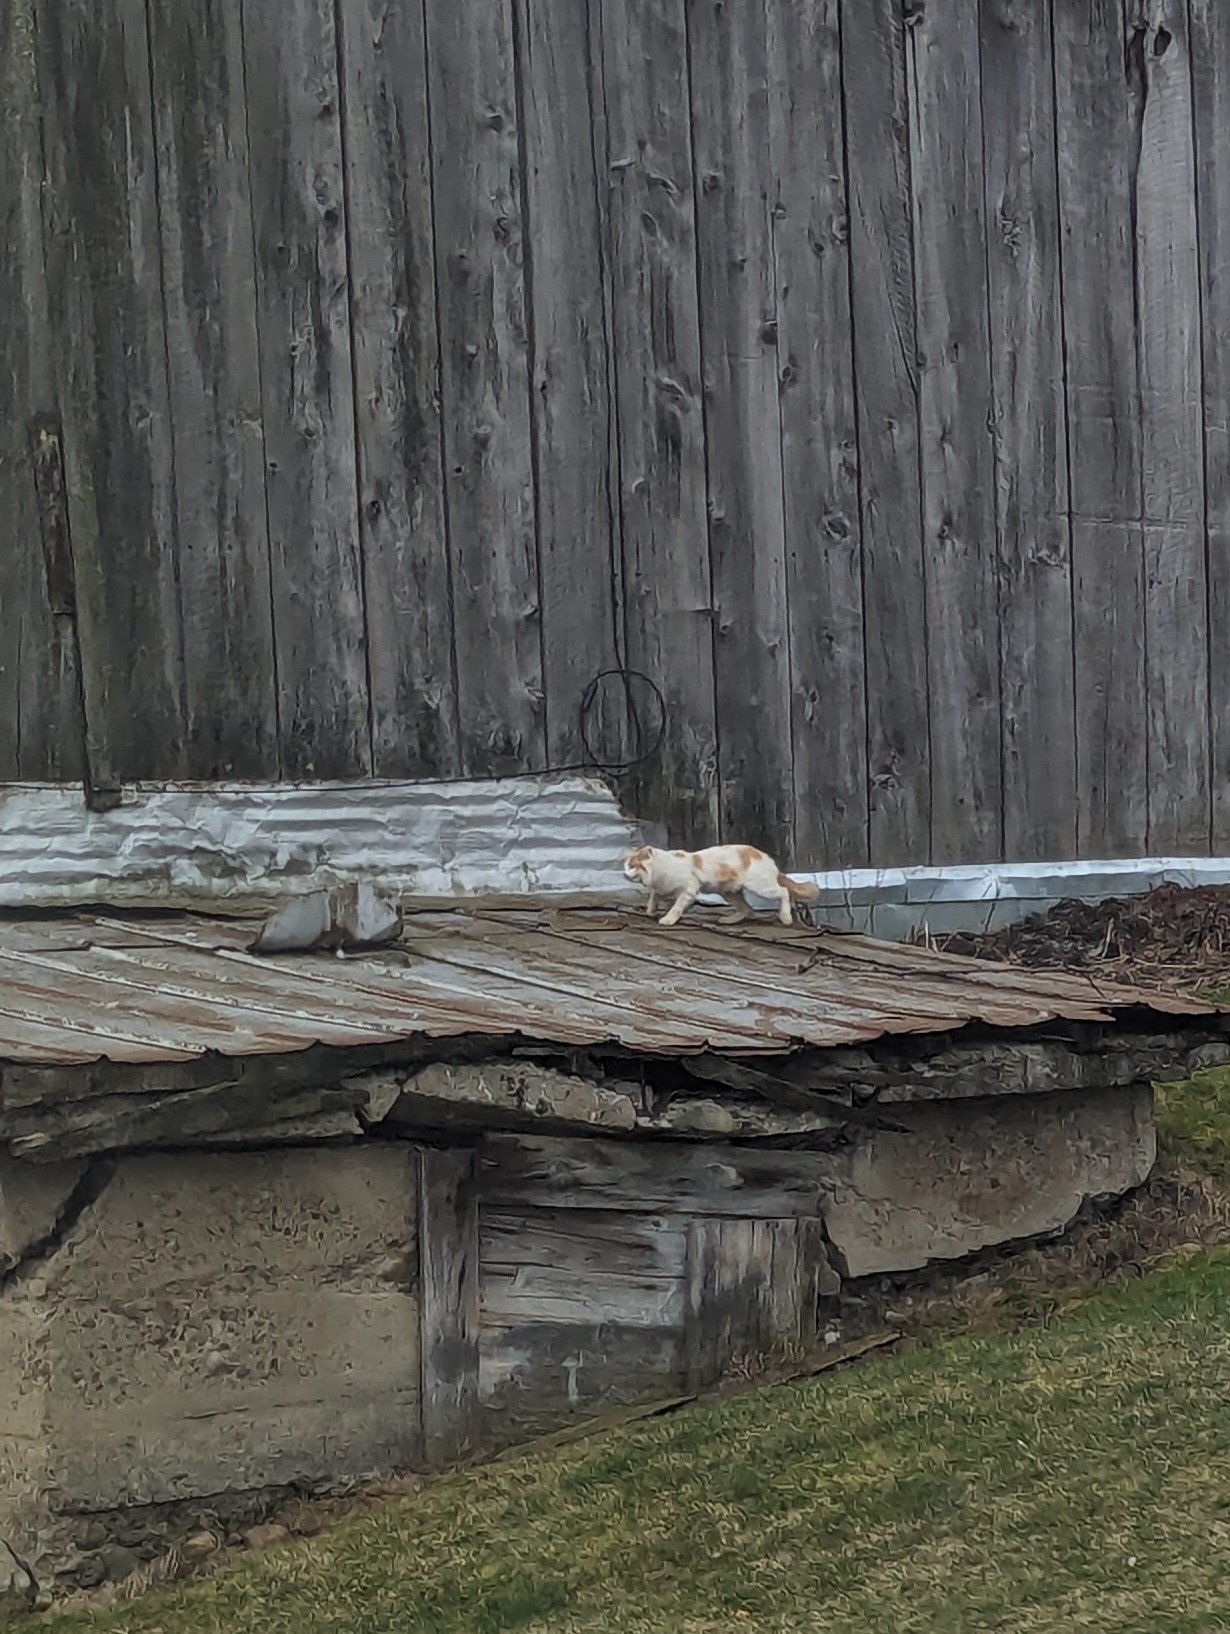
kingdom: Animalia
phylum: Chordata
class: Mammalia
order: Carnivora
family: Felidae
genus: Felis
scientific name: Felis catus
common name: Domestic cat
